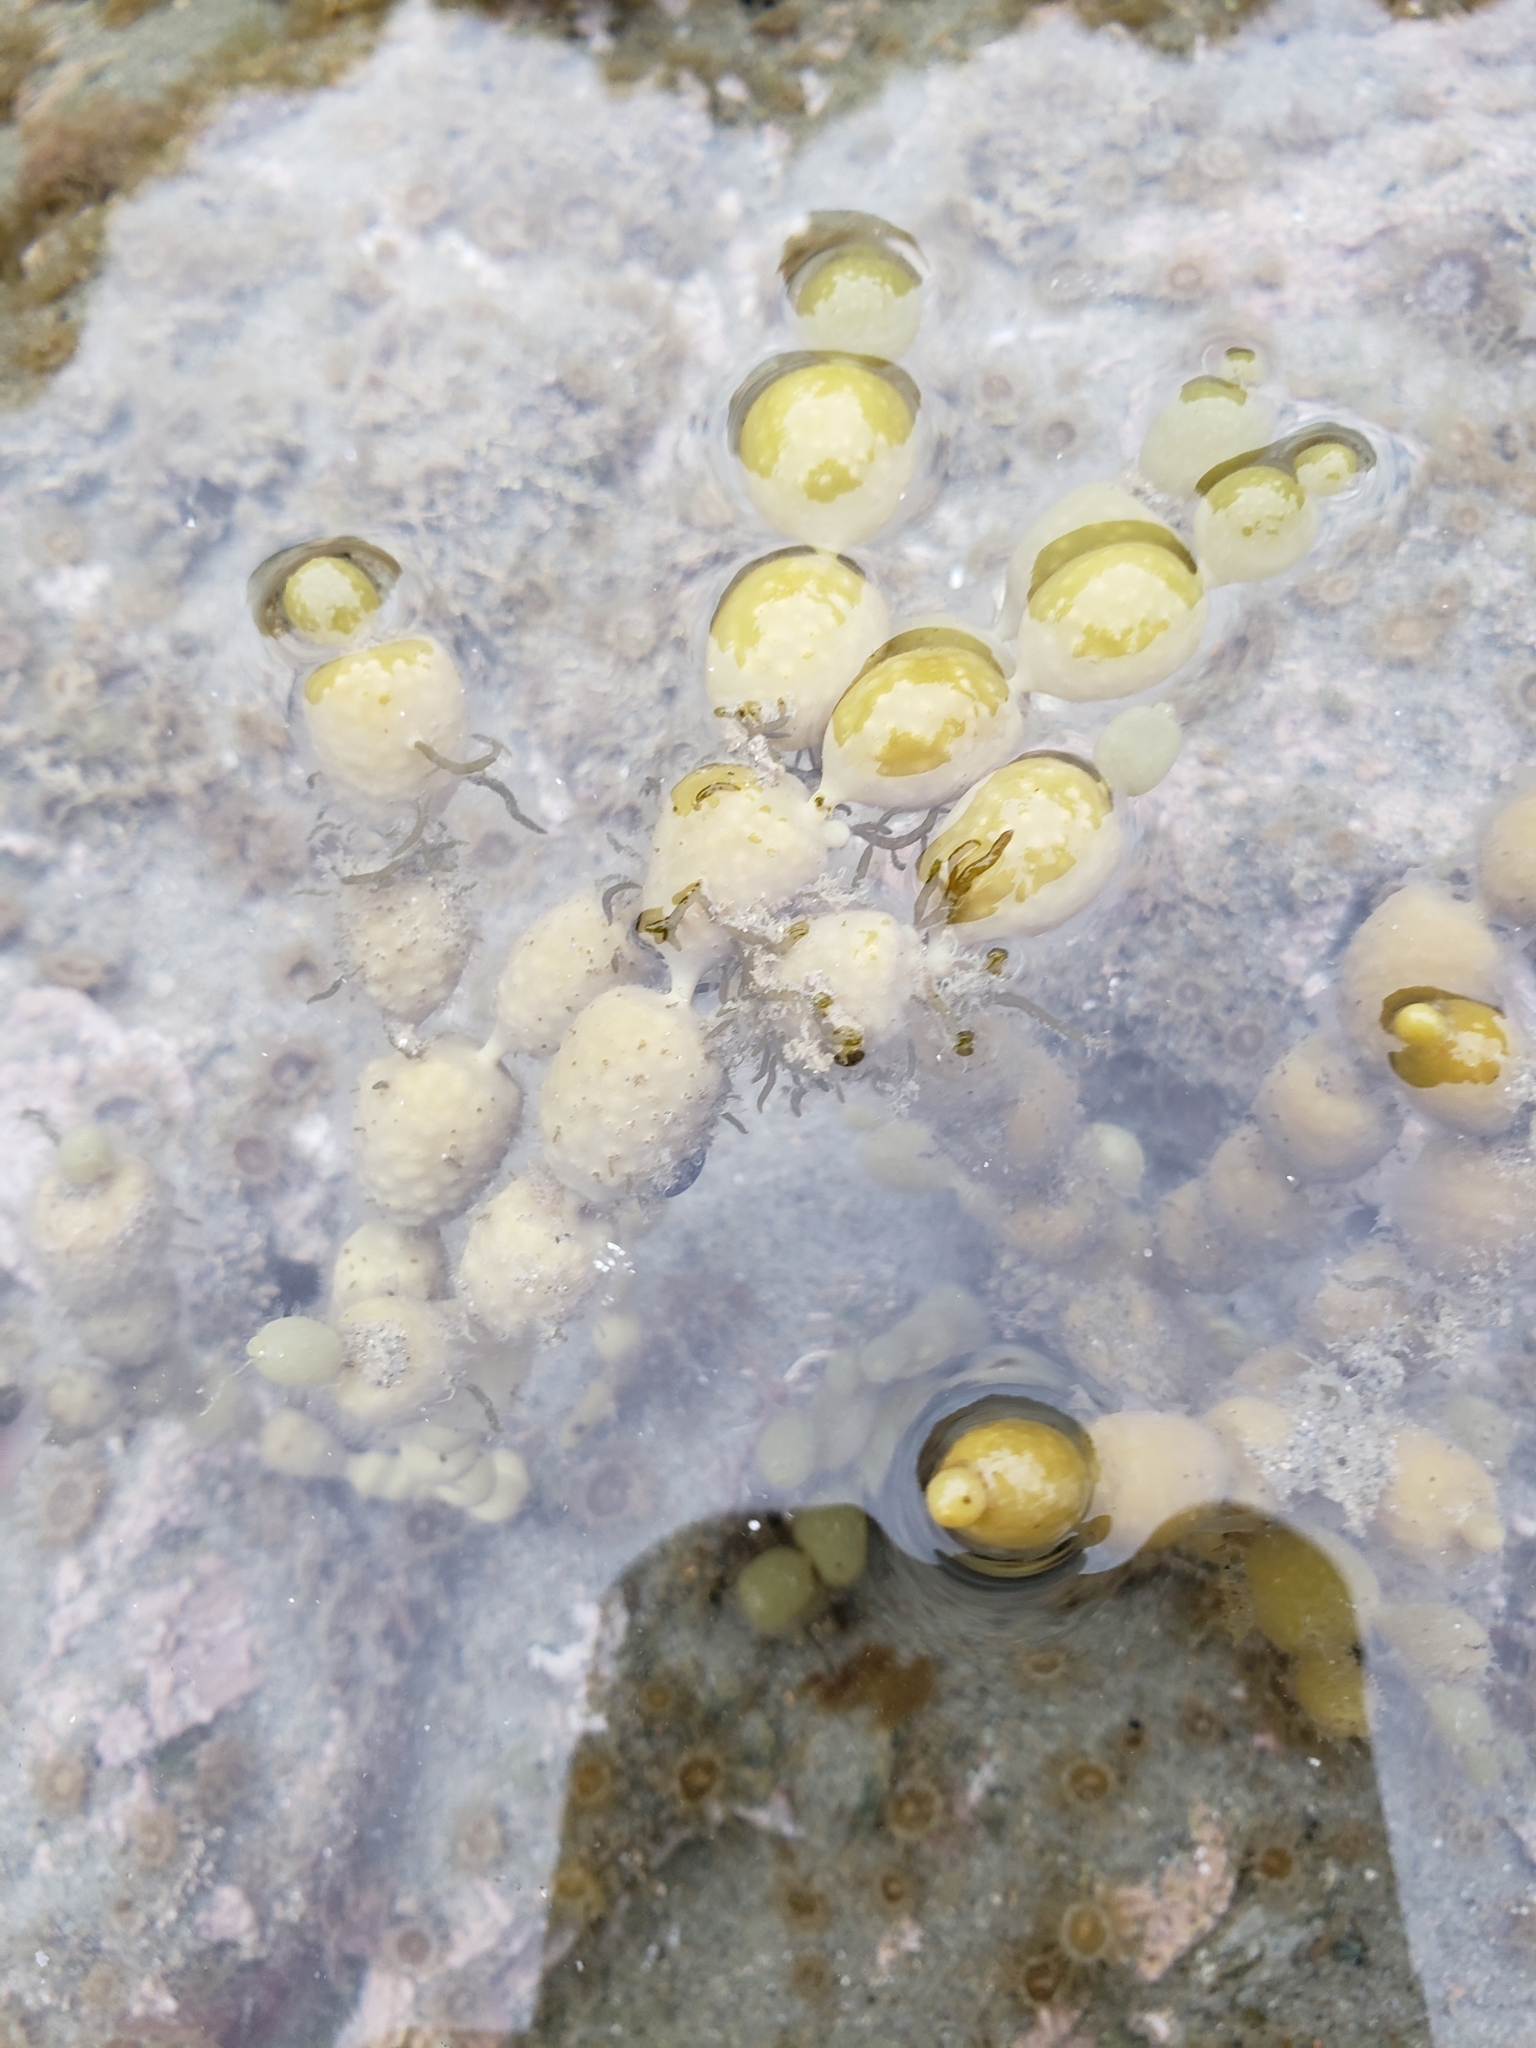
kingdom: Chromista
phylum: Ochrophyta
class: Phaeophyceae
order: Fucales
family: Notheiaceae
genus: Notheia
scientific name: Notheia anomala
